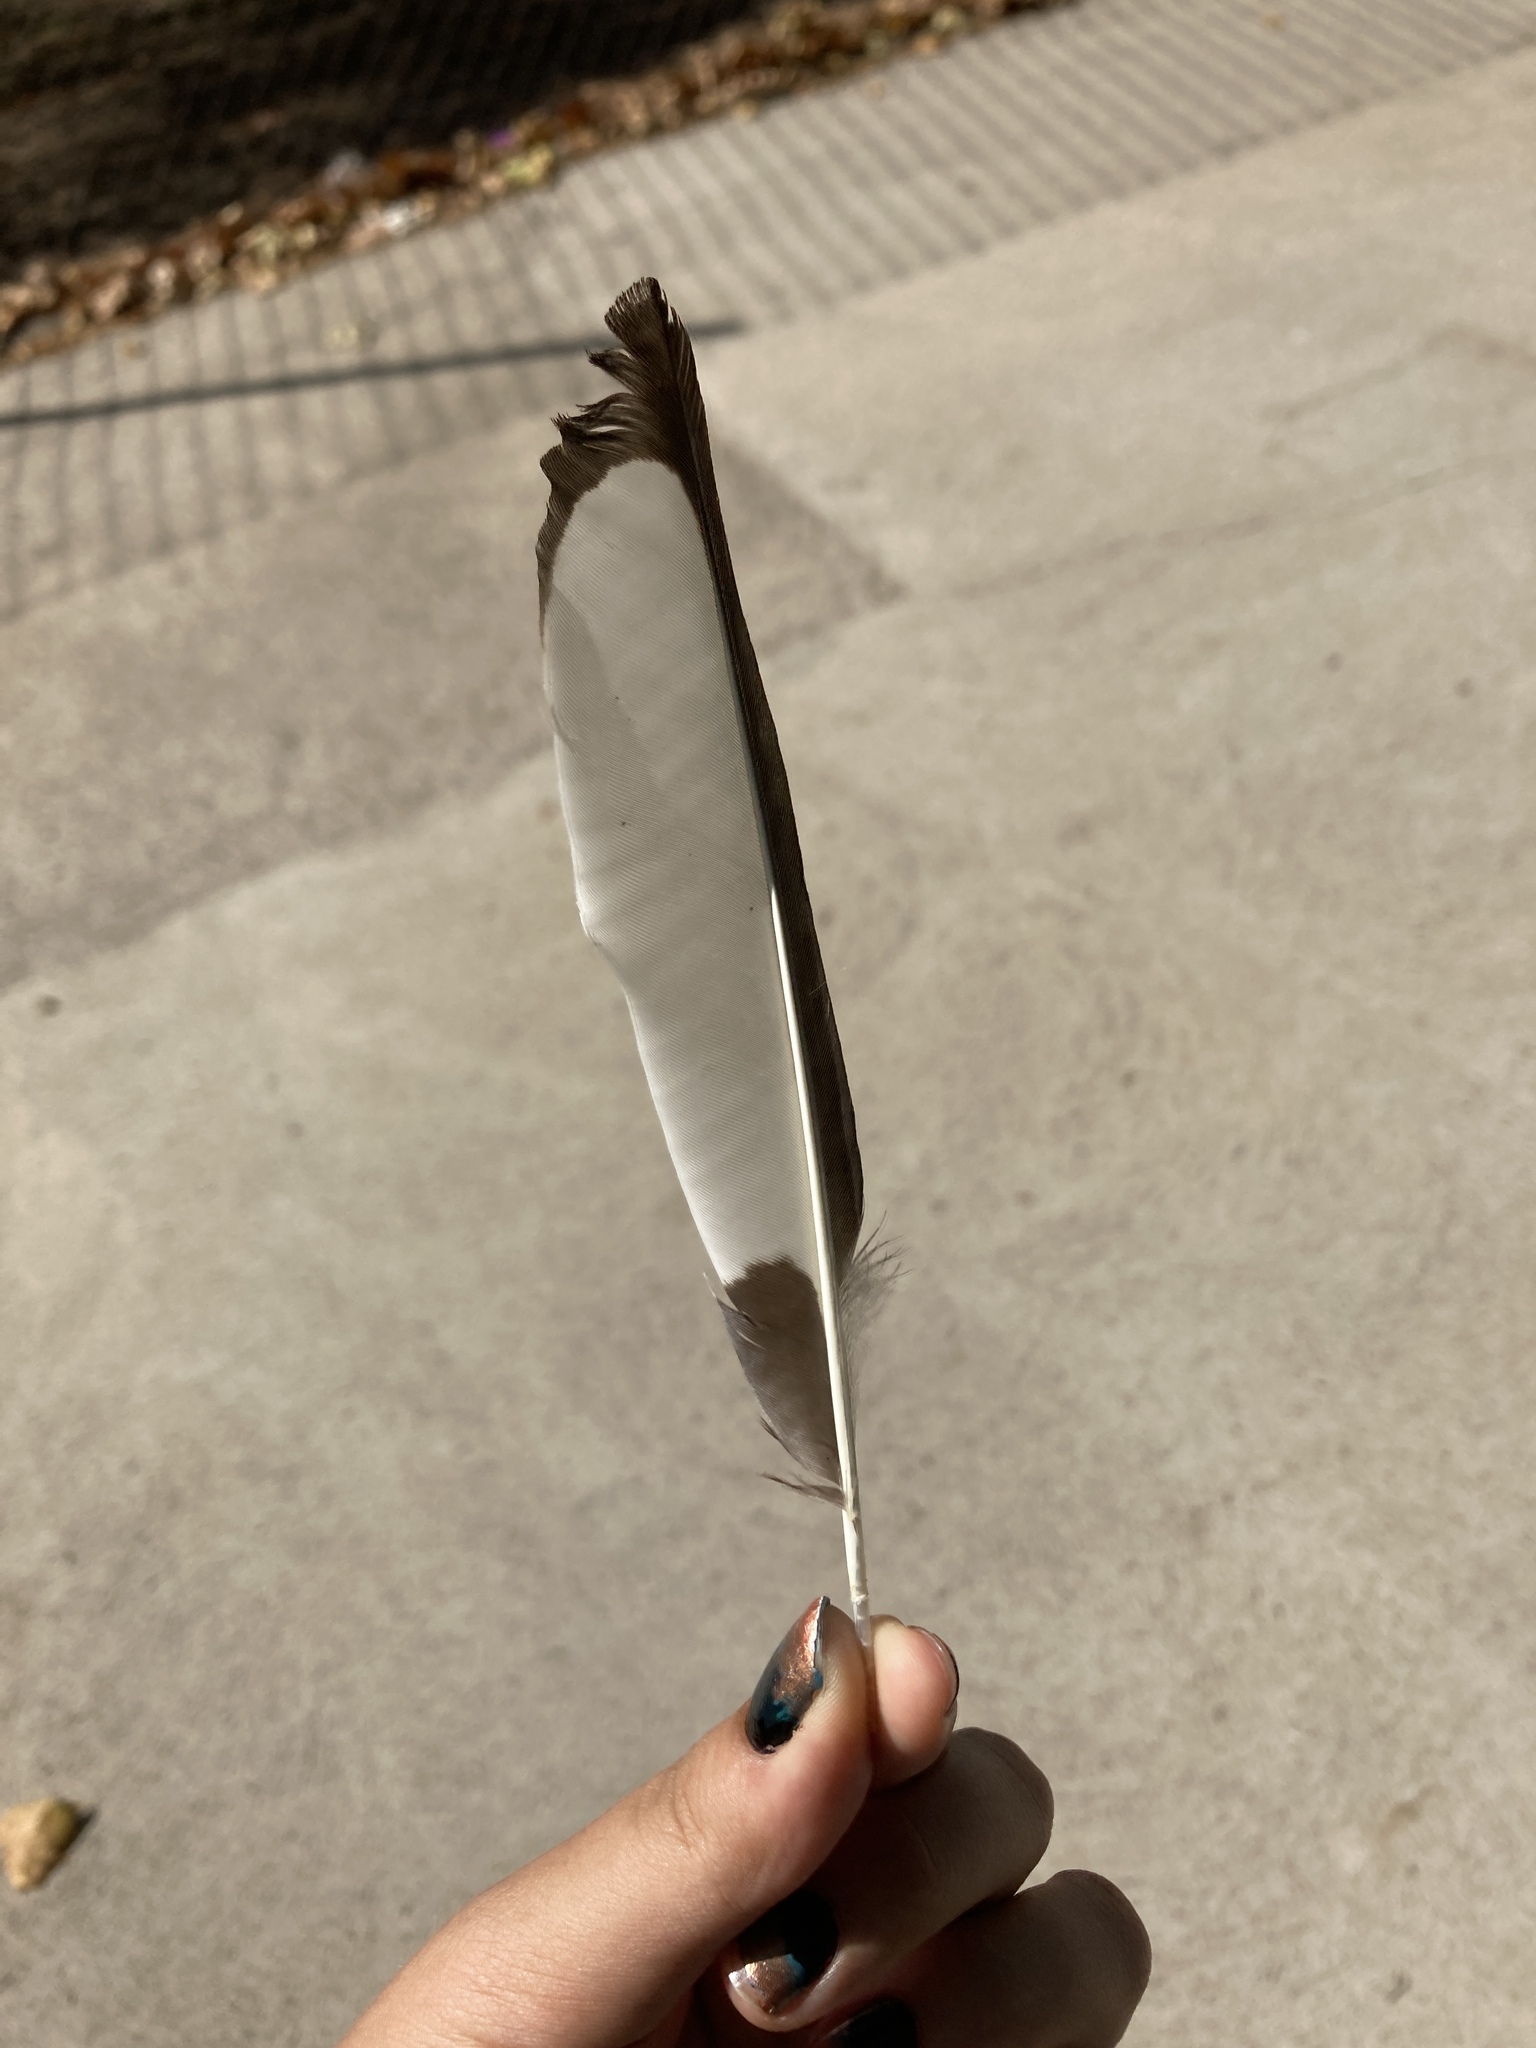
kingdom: Animalia
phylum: Chordata
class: Aves
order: Passeriformes
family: Corvidae
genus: Pica
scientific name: Pica pica
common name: Eurasian magpie
